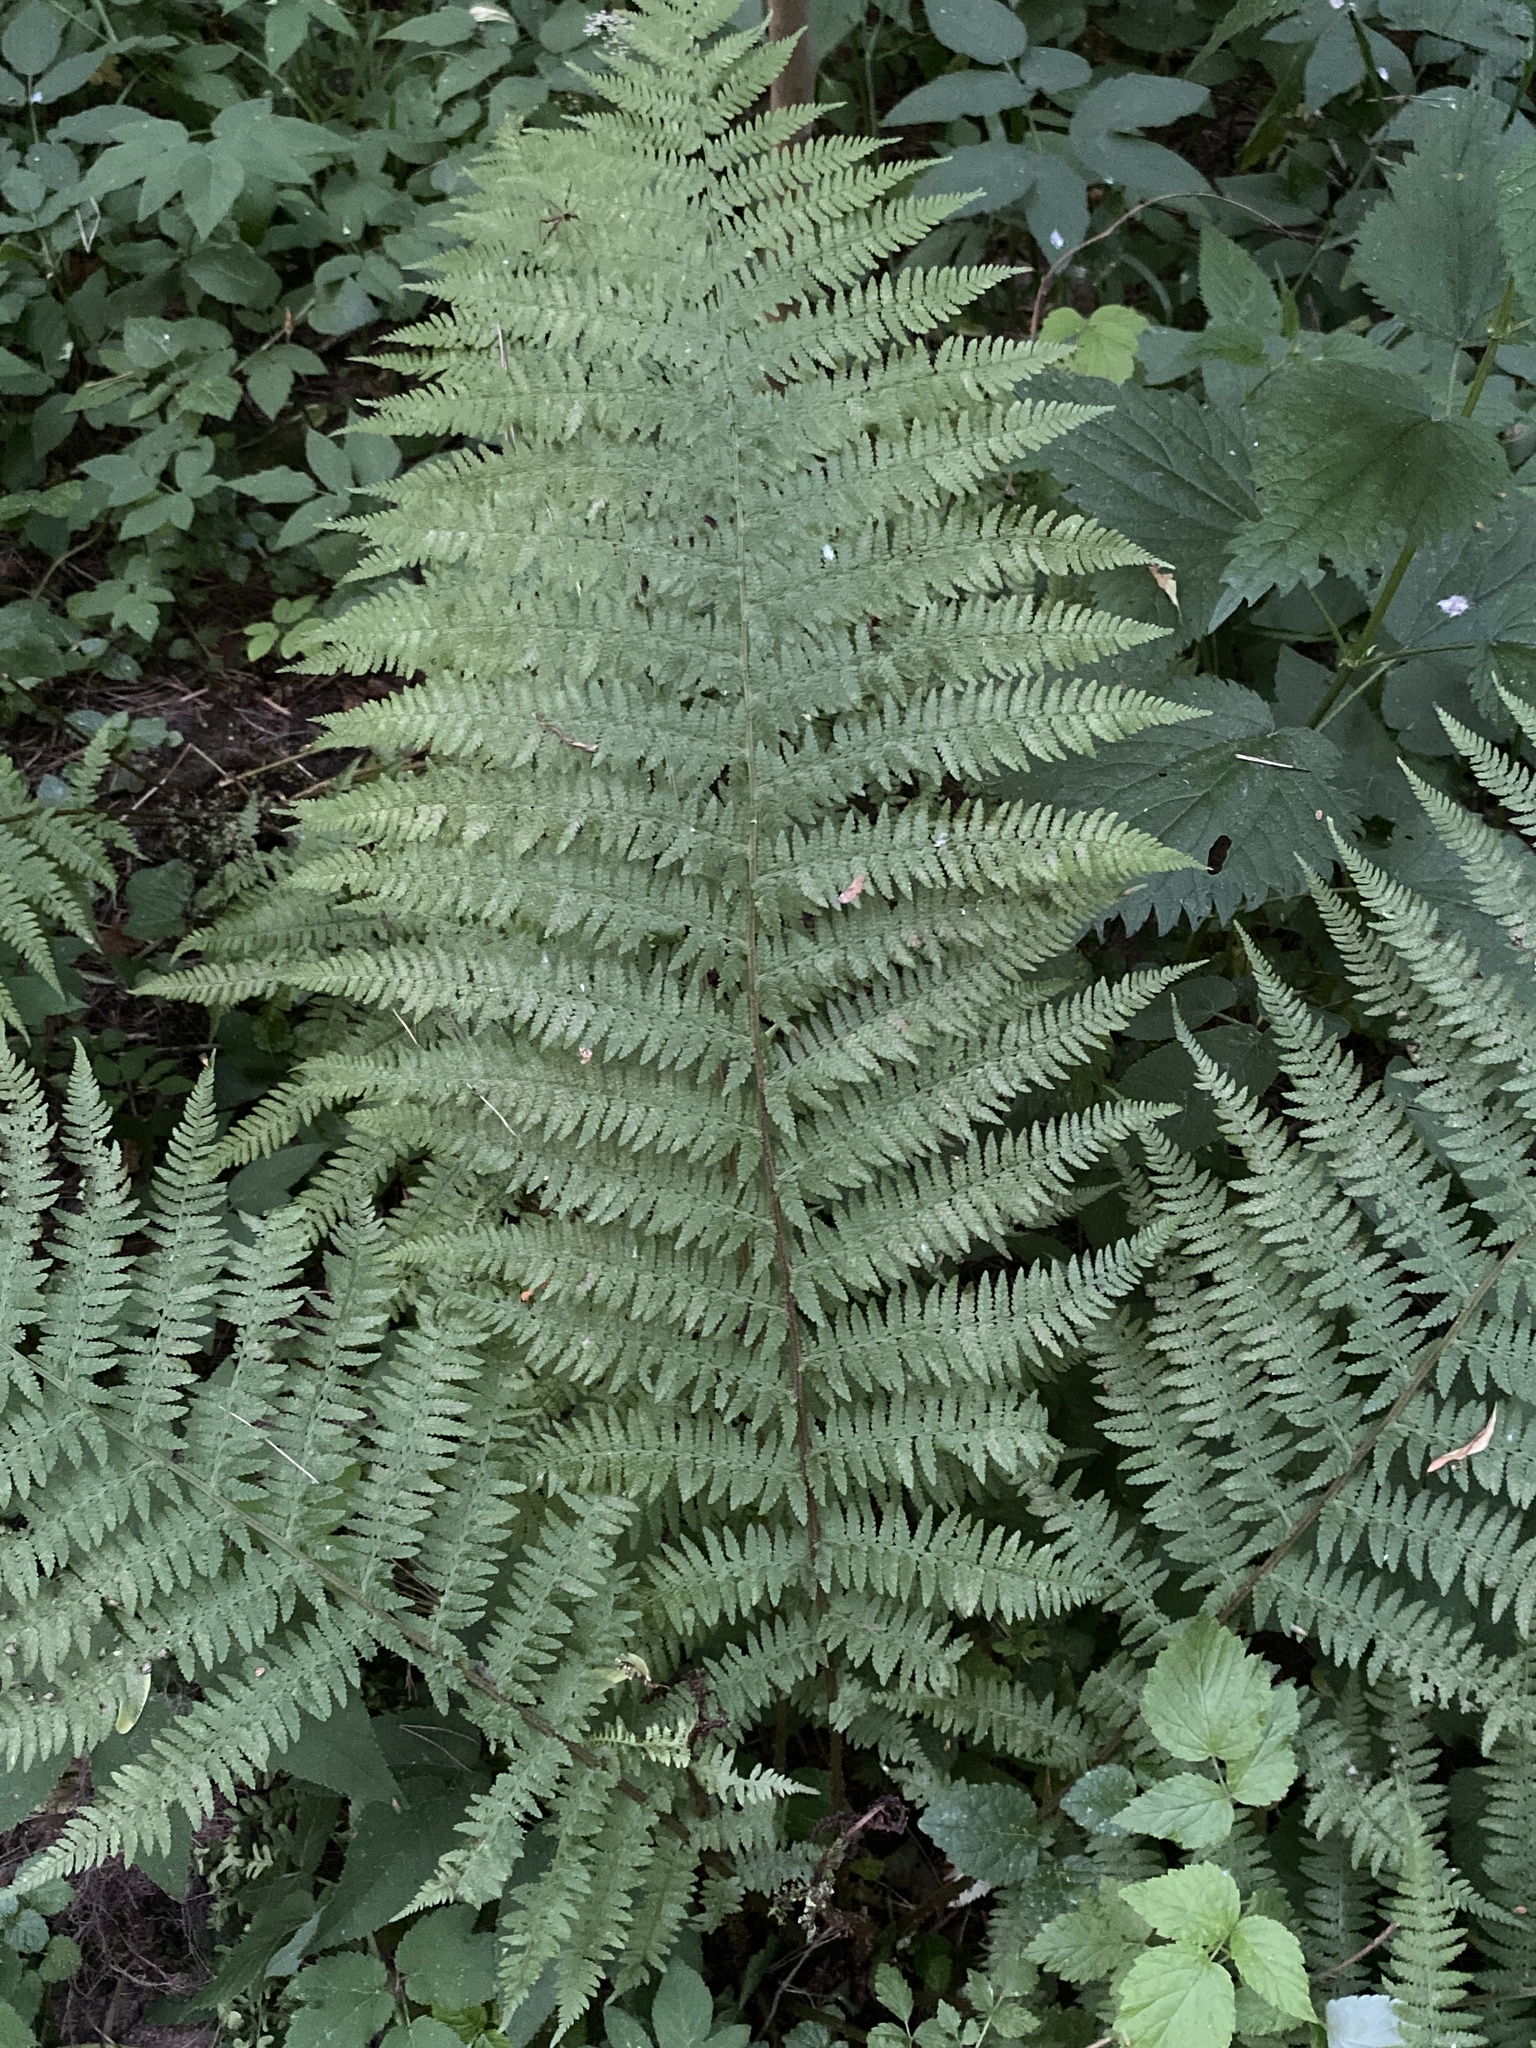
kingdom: Plantae
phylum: Tracheophyta
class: Polypodiopsida
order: Polypodiales
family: Athyriaceae
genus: Athyrium
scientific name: Athyrium filix-femina
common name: Lady fern
